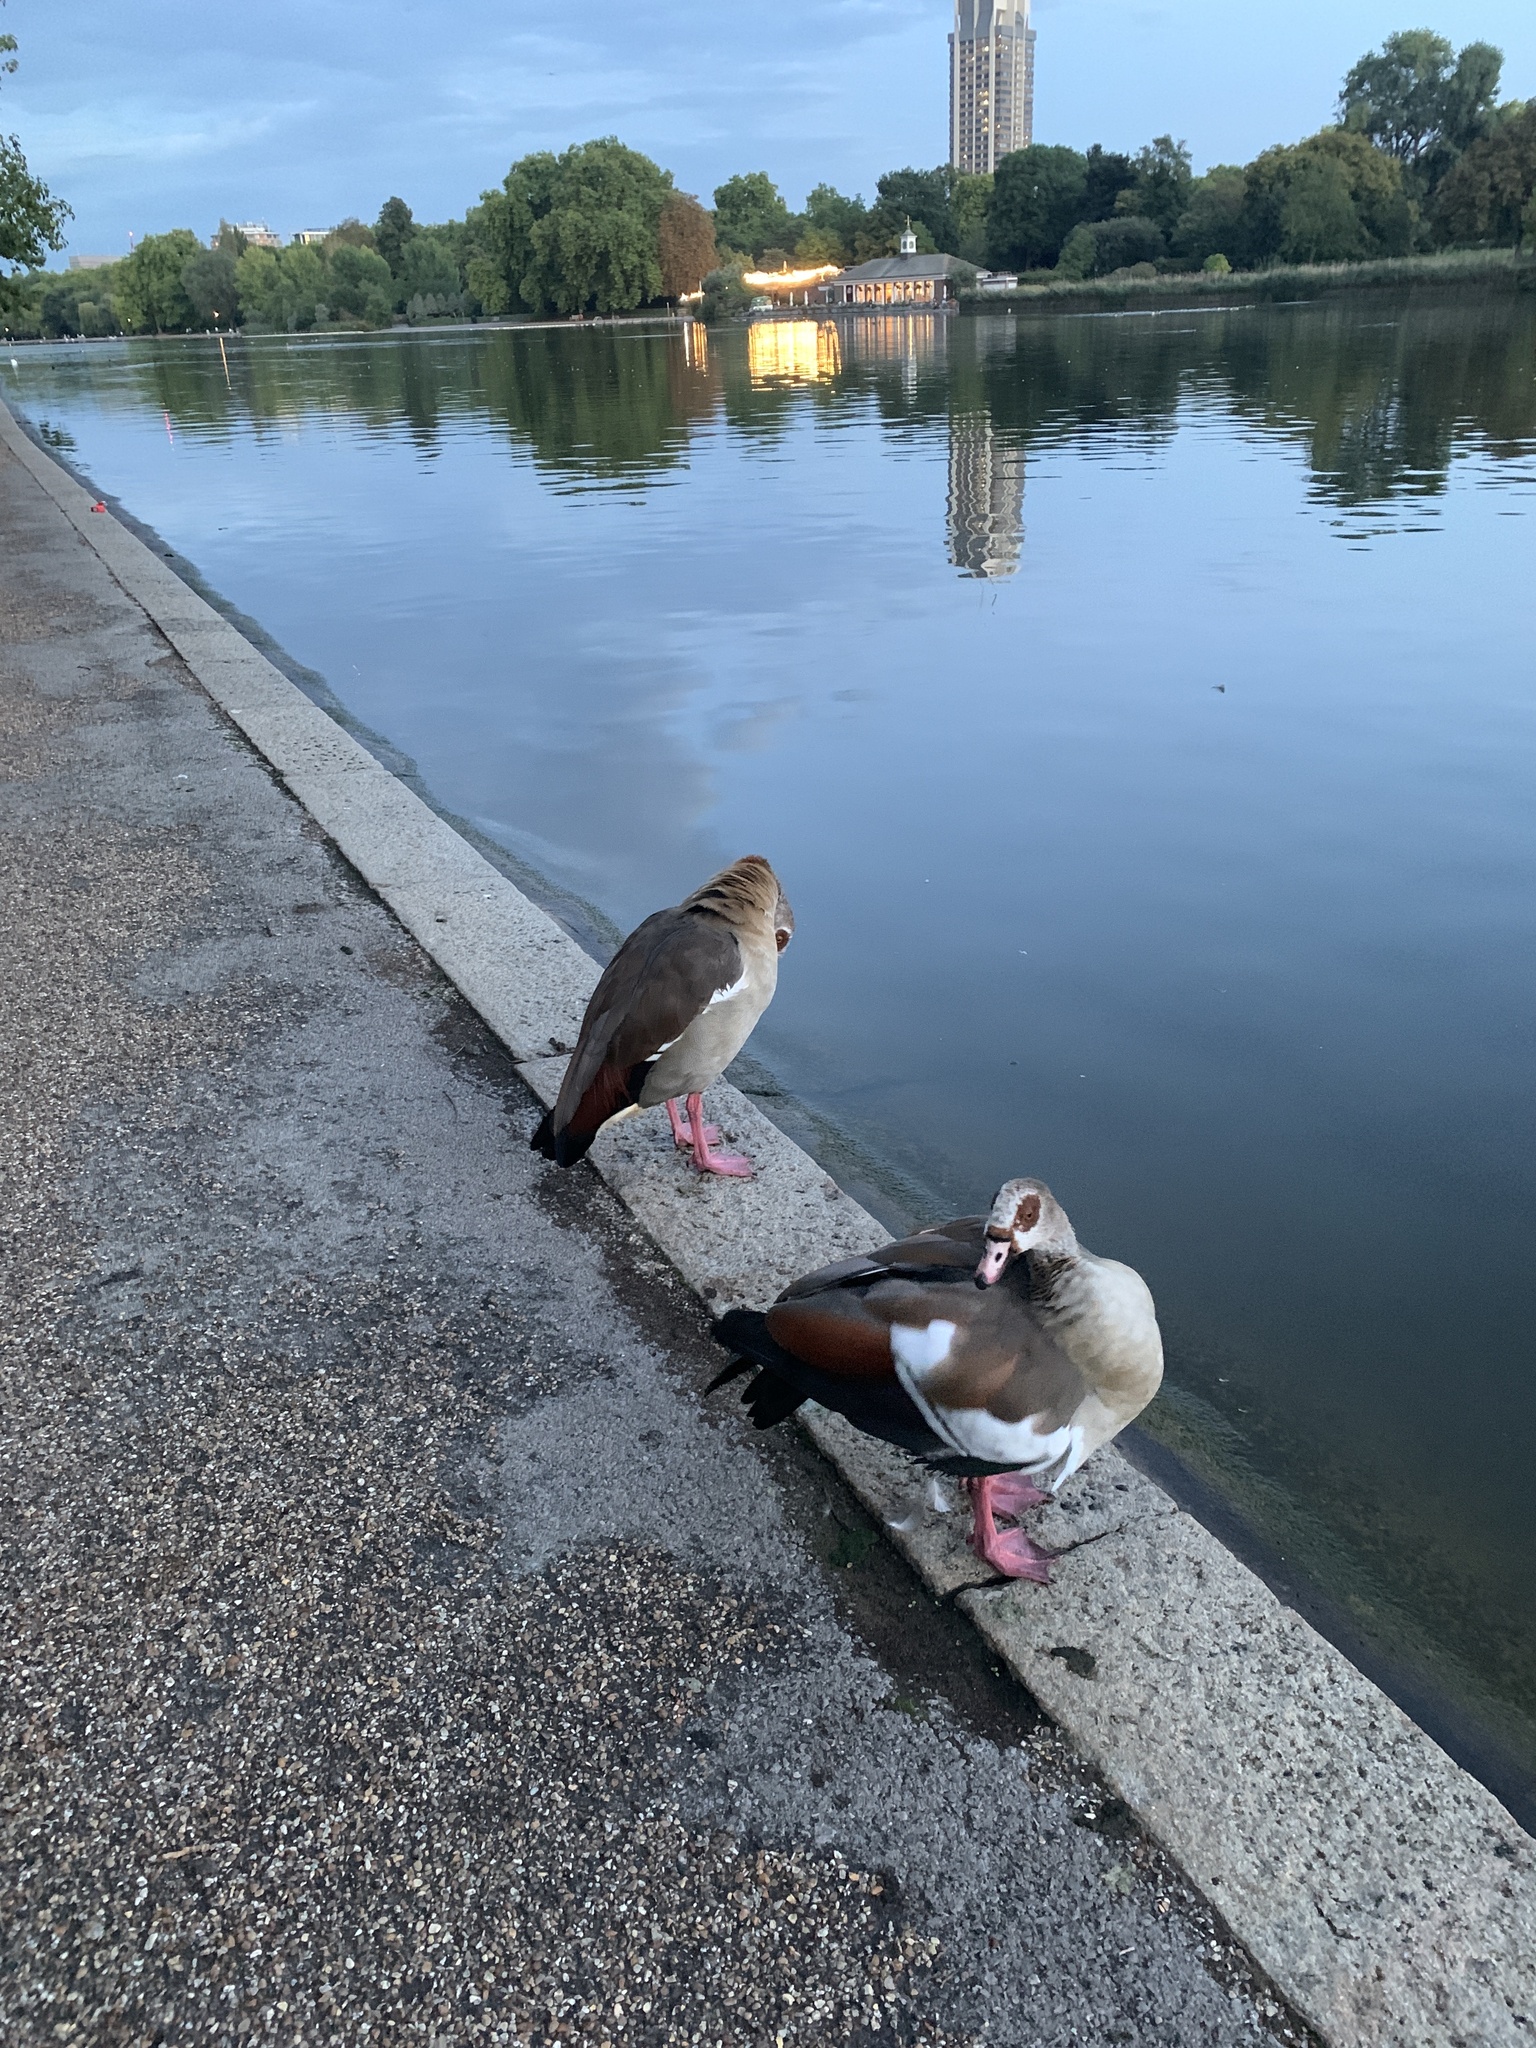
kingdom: Animalia
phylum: Chordata
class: Aves
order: Anseriformes
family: Anatidae
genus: Alopochen
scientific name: Alopochen aegyptiaca
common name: Egyptian goose
